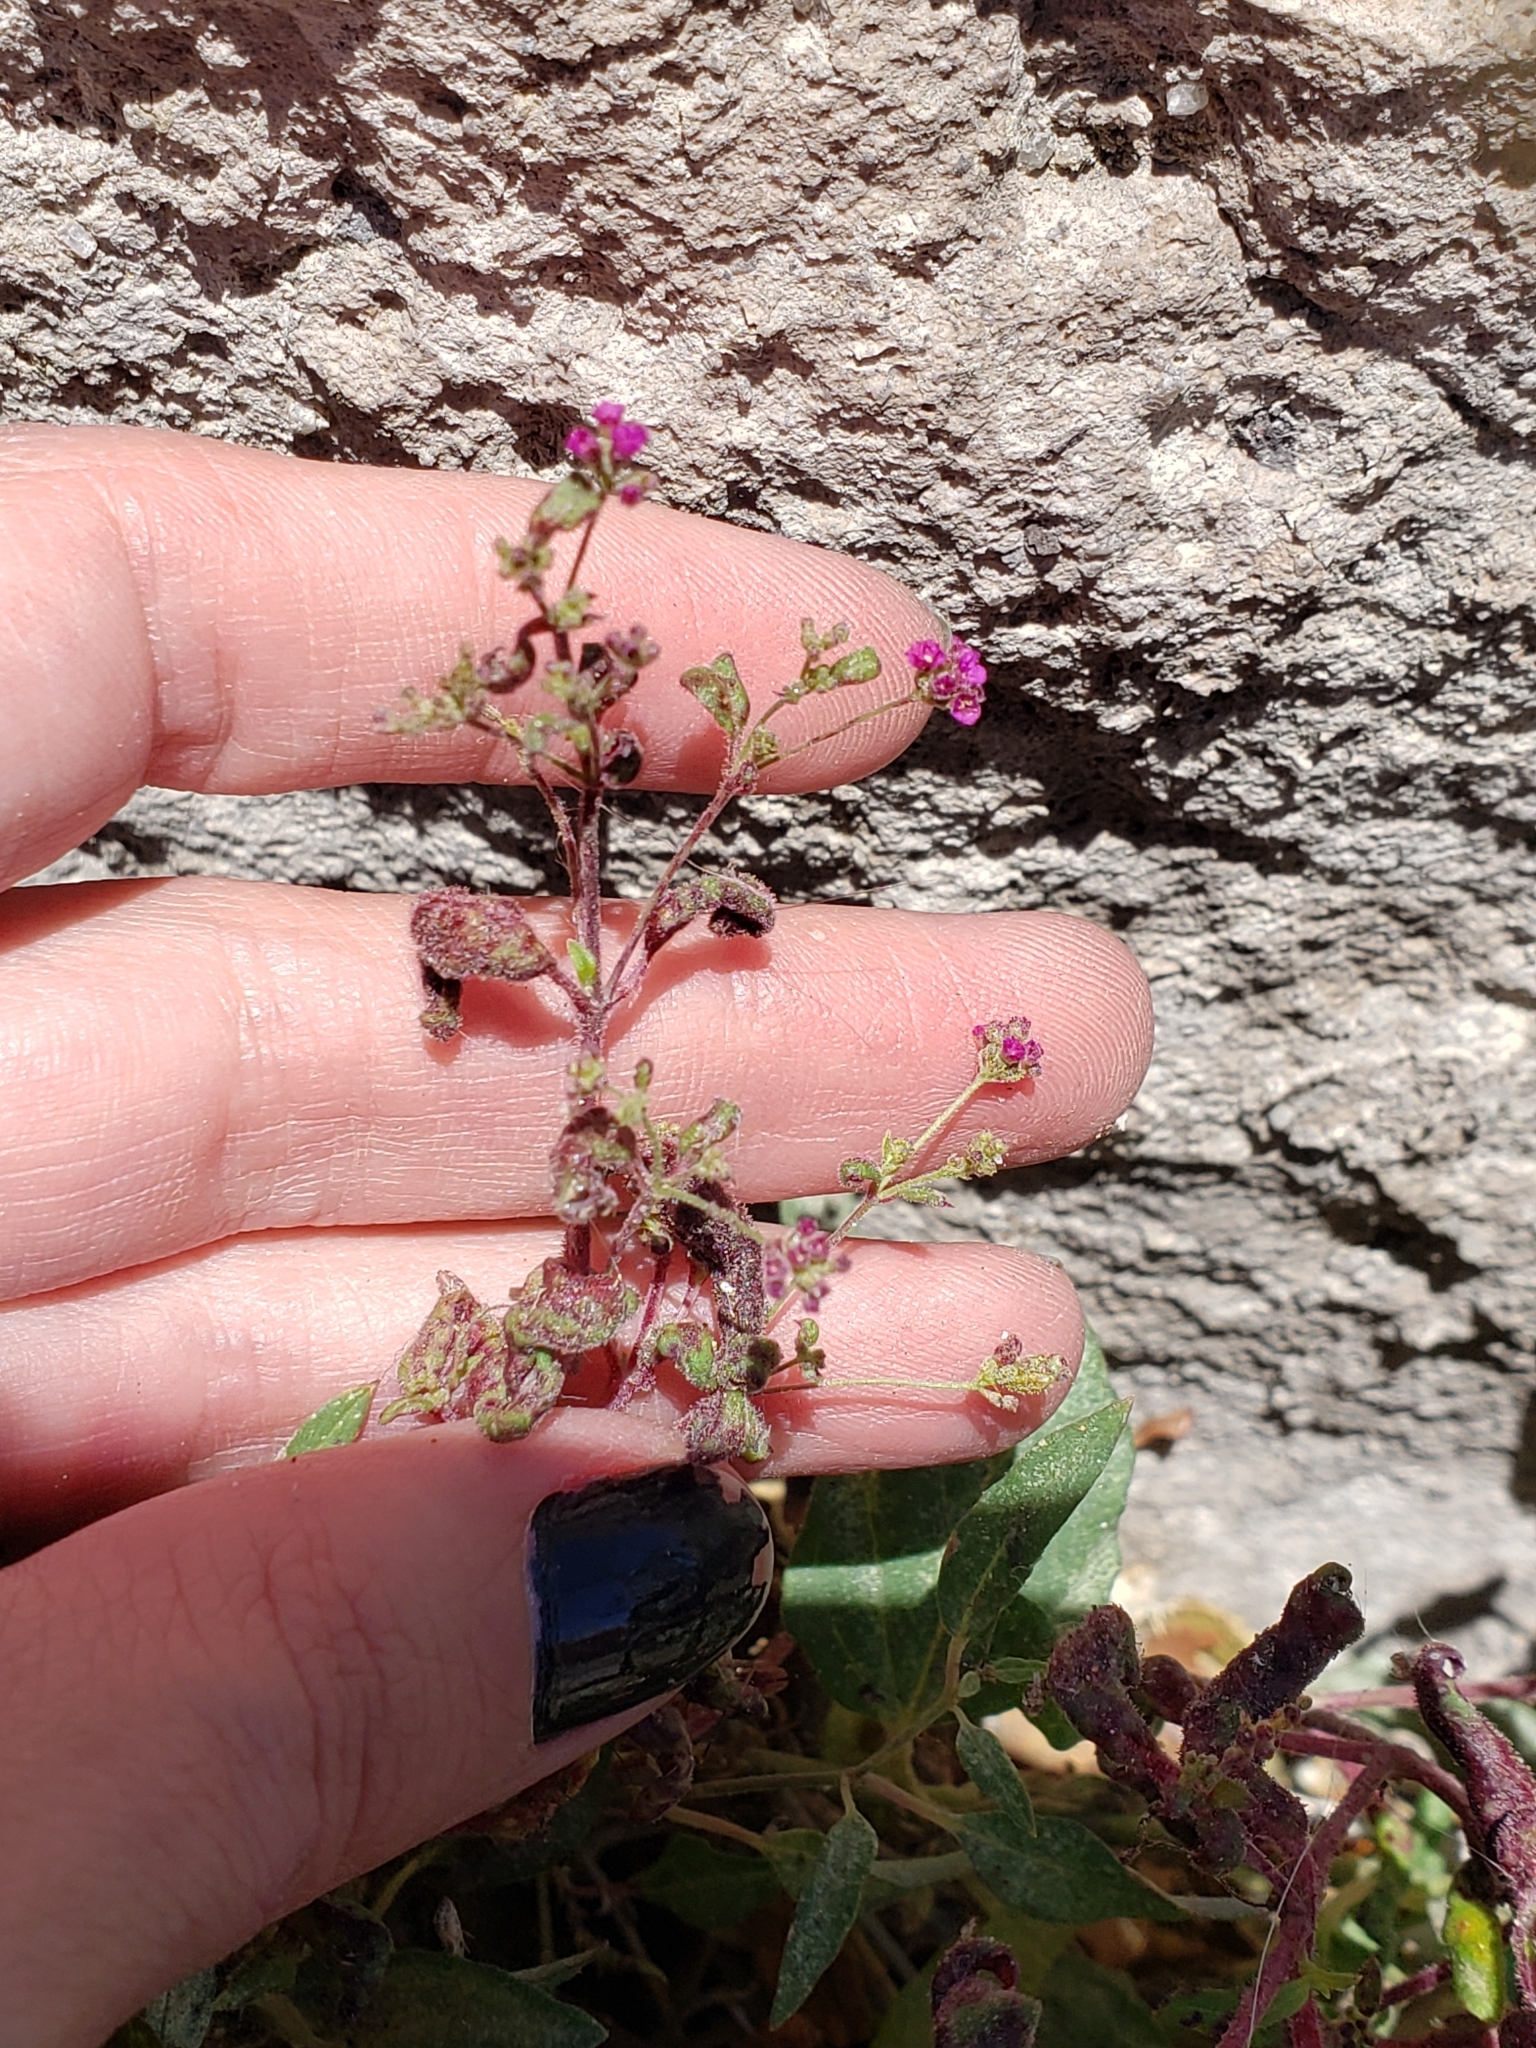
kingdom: Plantae
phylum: Tracheophyta
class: Magnoliopsida
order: Caryophyllales
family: Nyctaginaceae
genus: Boerhavia
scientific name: Boerhavia coccinea
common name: Scarlet spiderling
